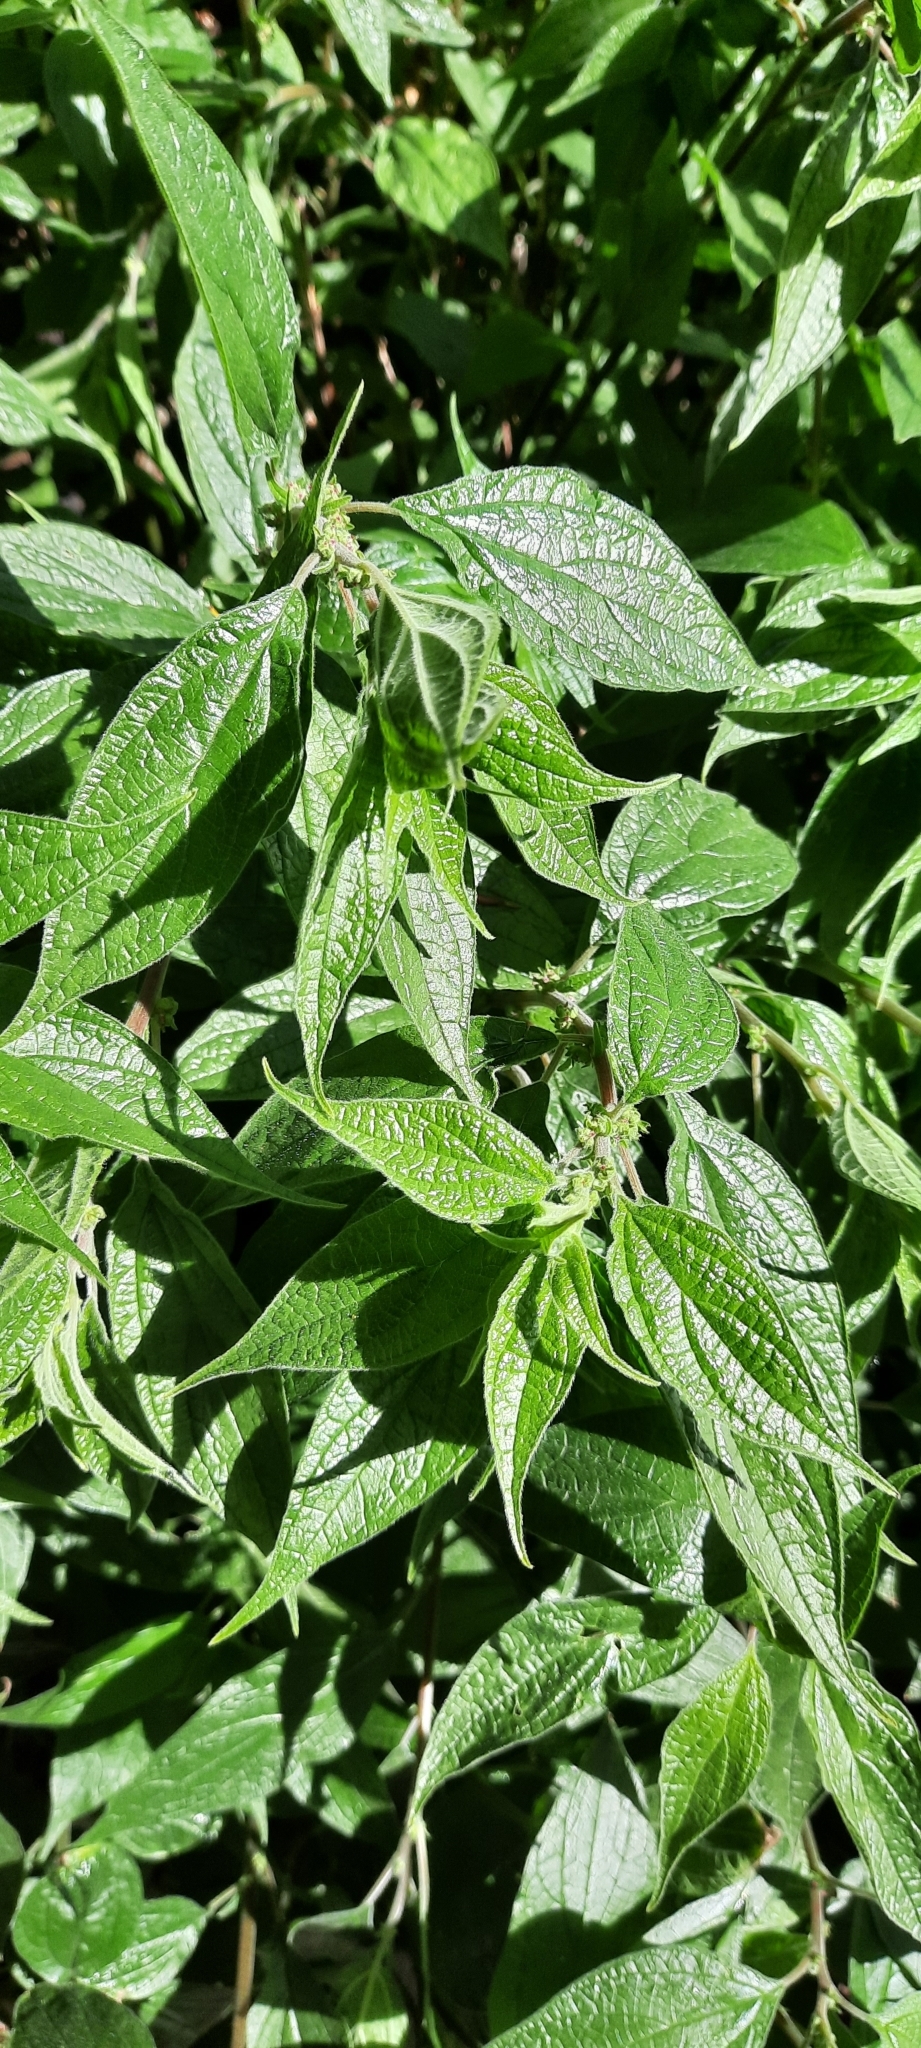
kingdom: Plantae
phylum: Tracheophyta
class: Magnoliopsida
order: Rosales
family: Urticaceae
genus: Parietaria
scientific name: Parietaria officinalis
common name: Eastern pellitory-of-the-wall
